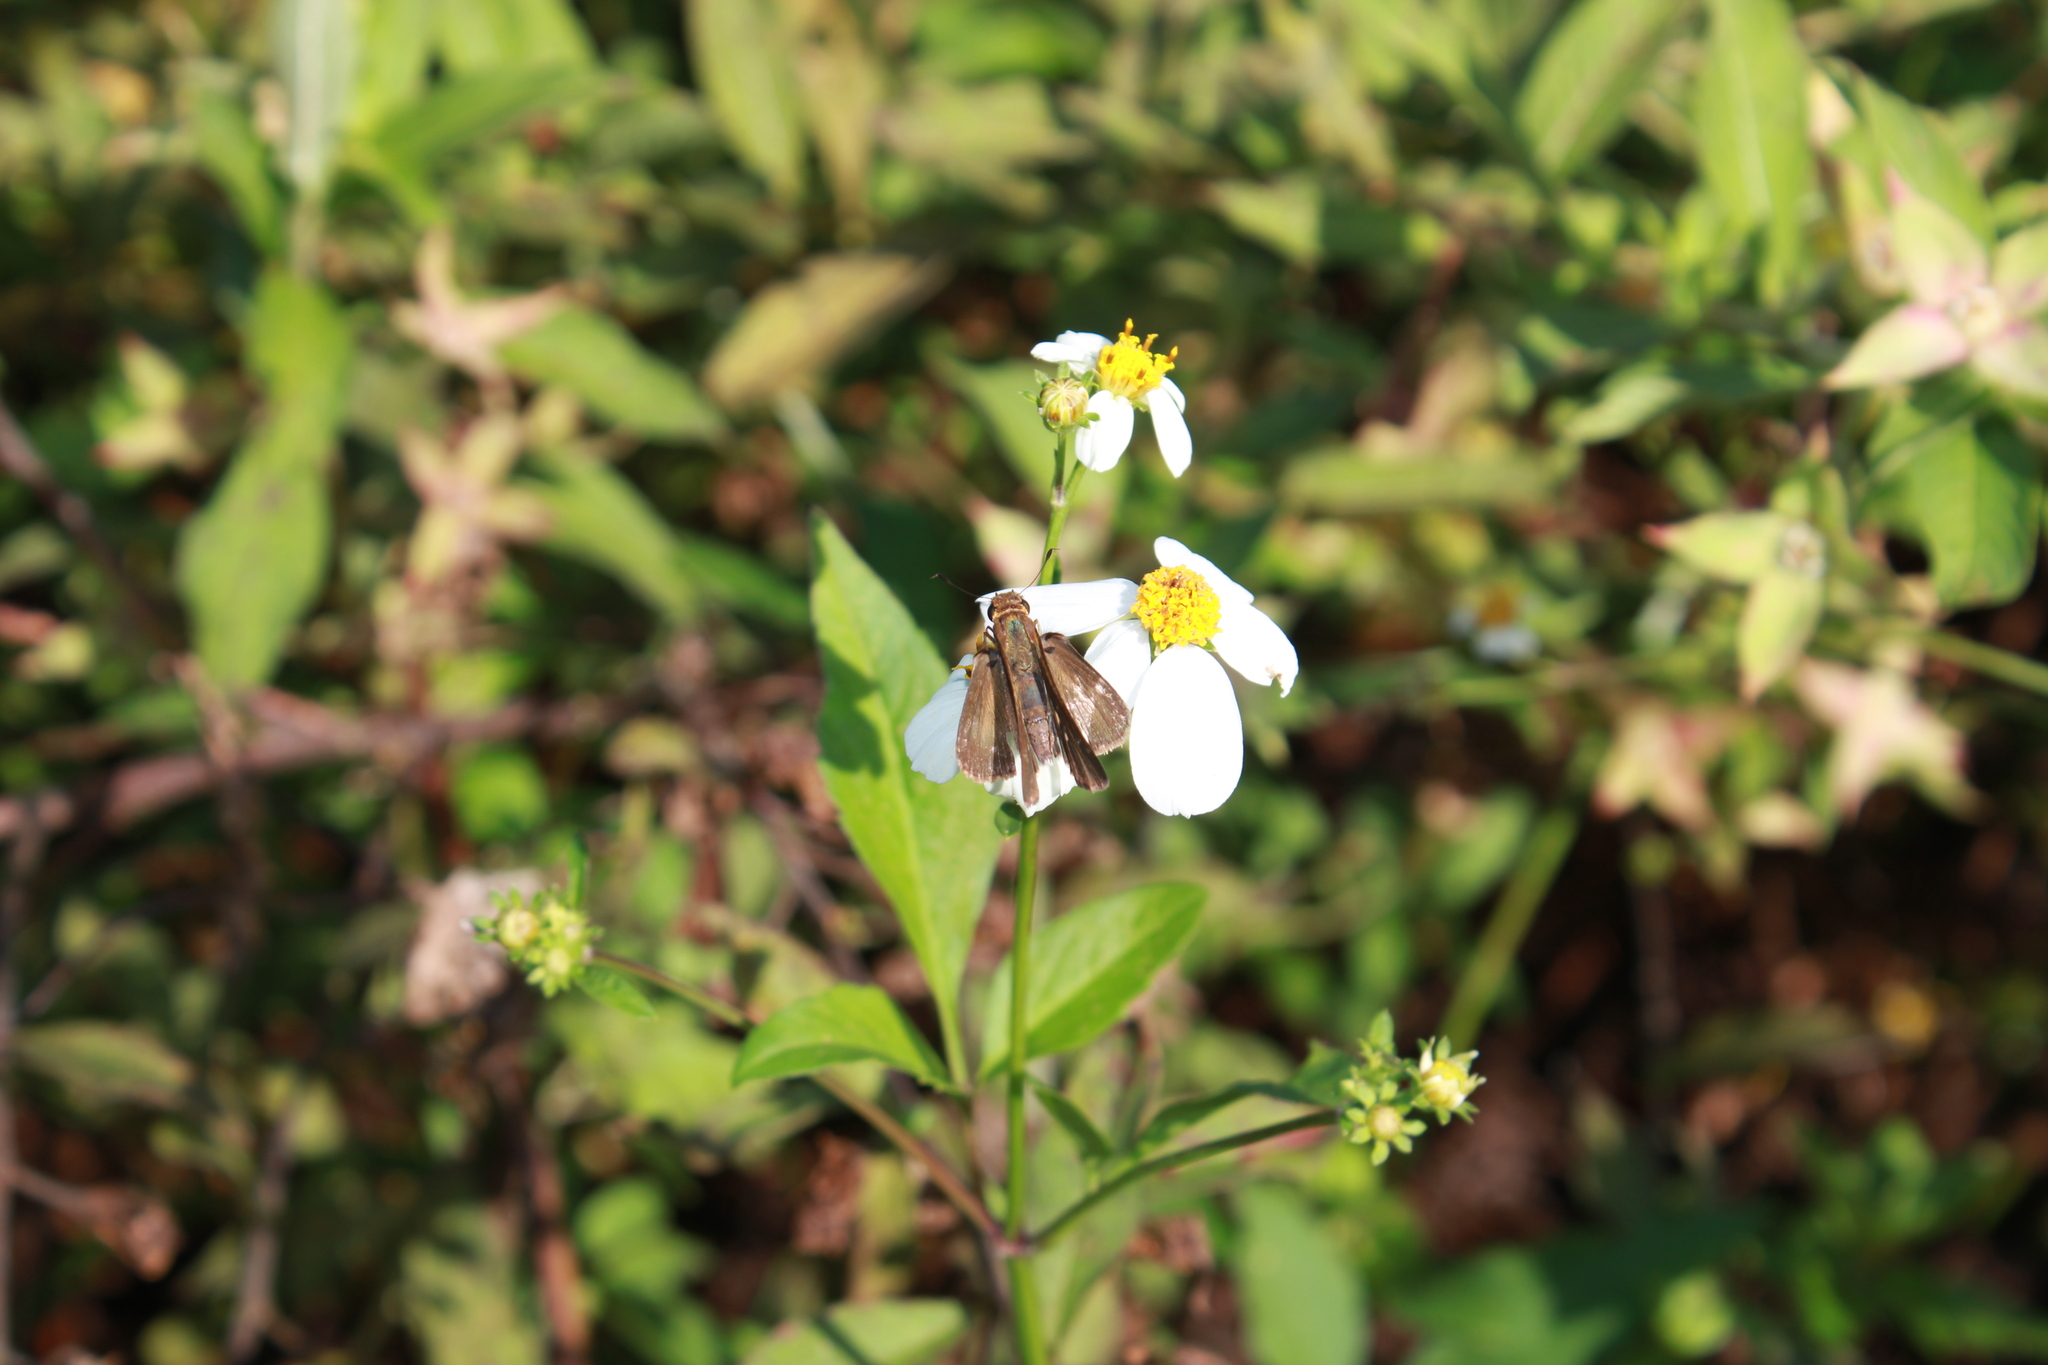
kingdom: Animalia
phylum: Arthropoda
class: Insecta
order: Lepidoptera
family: Hesperiidae
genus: Panoquina
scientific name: Panoquina ocola
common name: Ocola skipper
